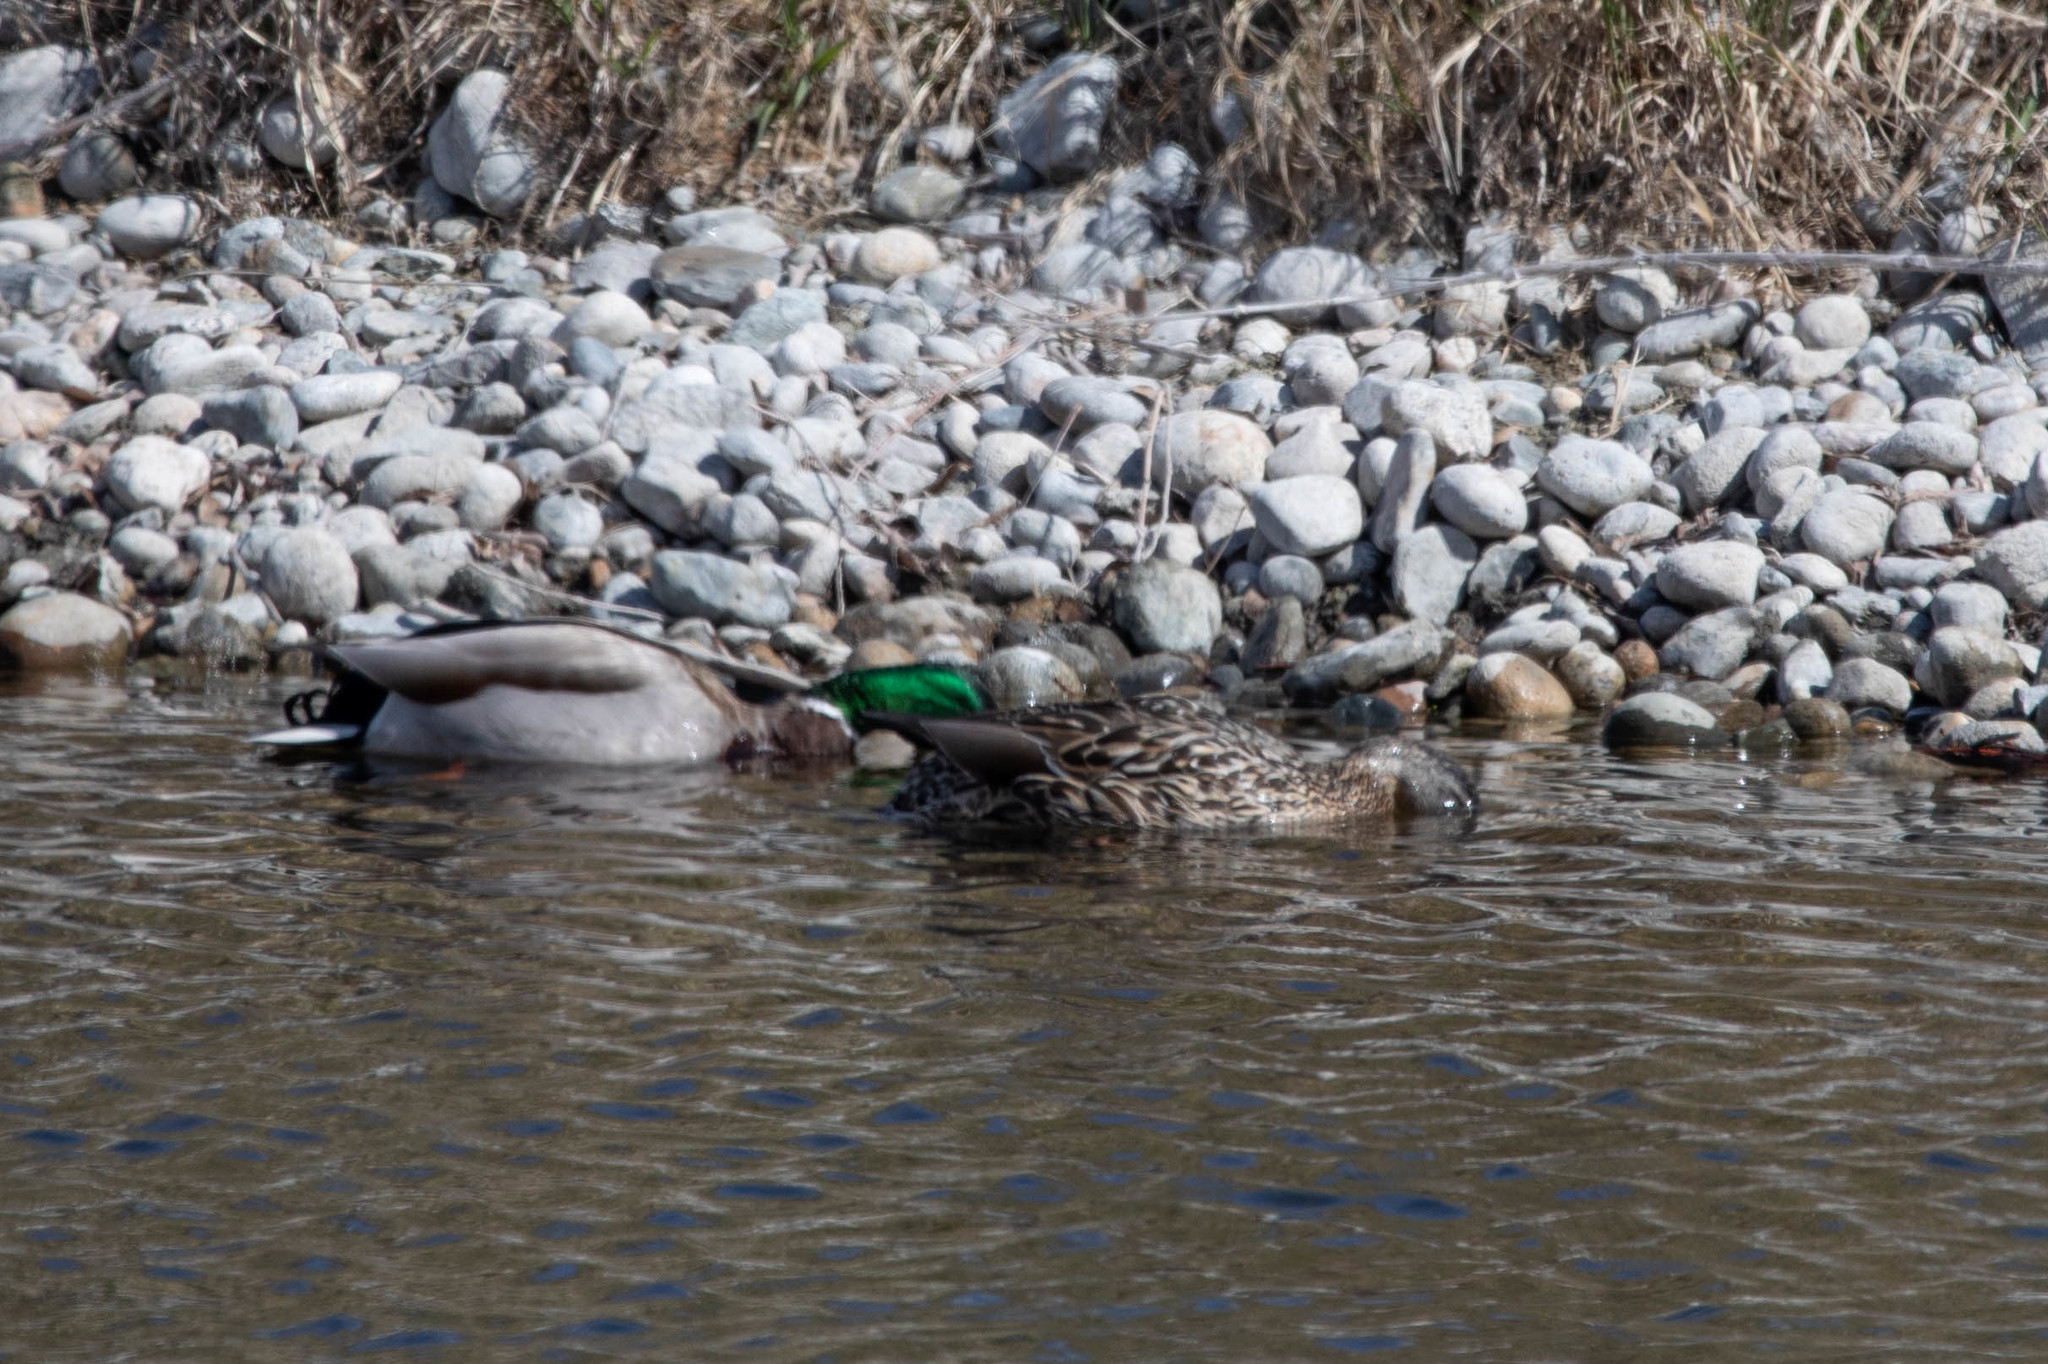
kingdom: Animalia
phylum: Chordata
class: Aves
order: Anseriformes
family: Anatidae
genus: Anas
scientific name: Anas platyrhynchos
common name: Mallard
